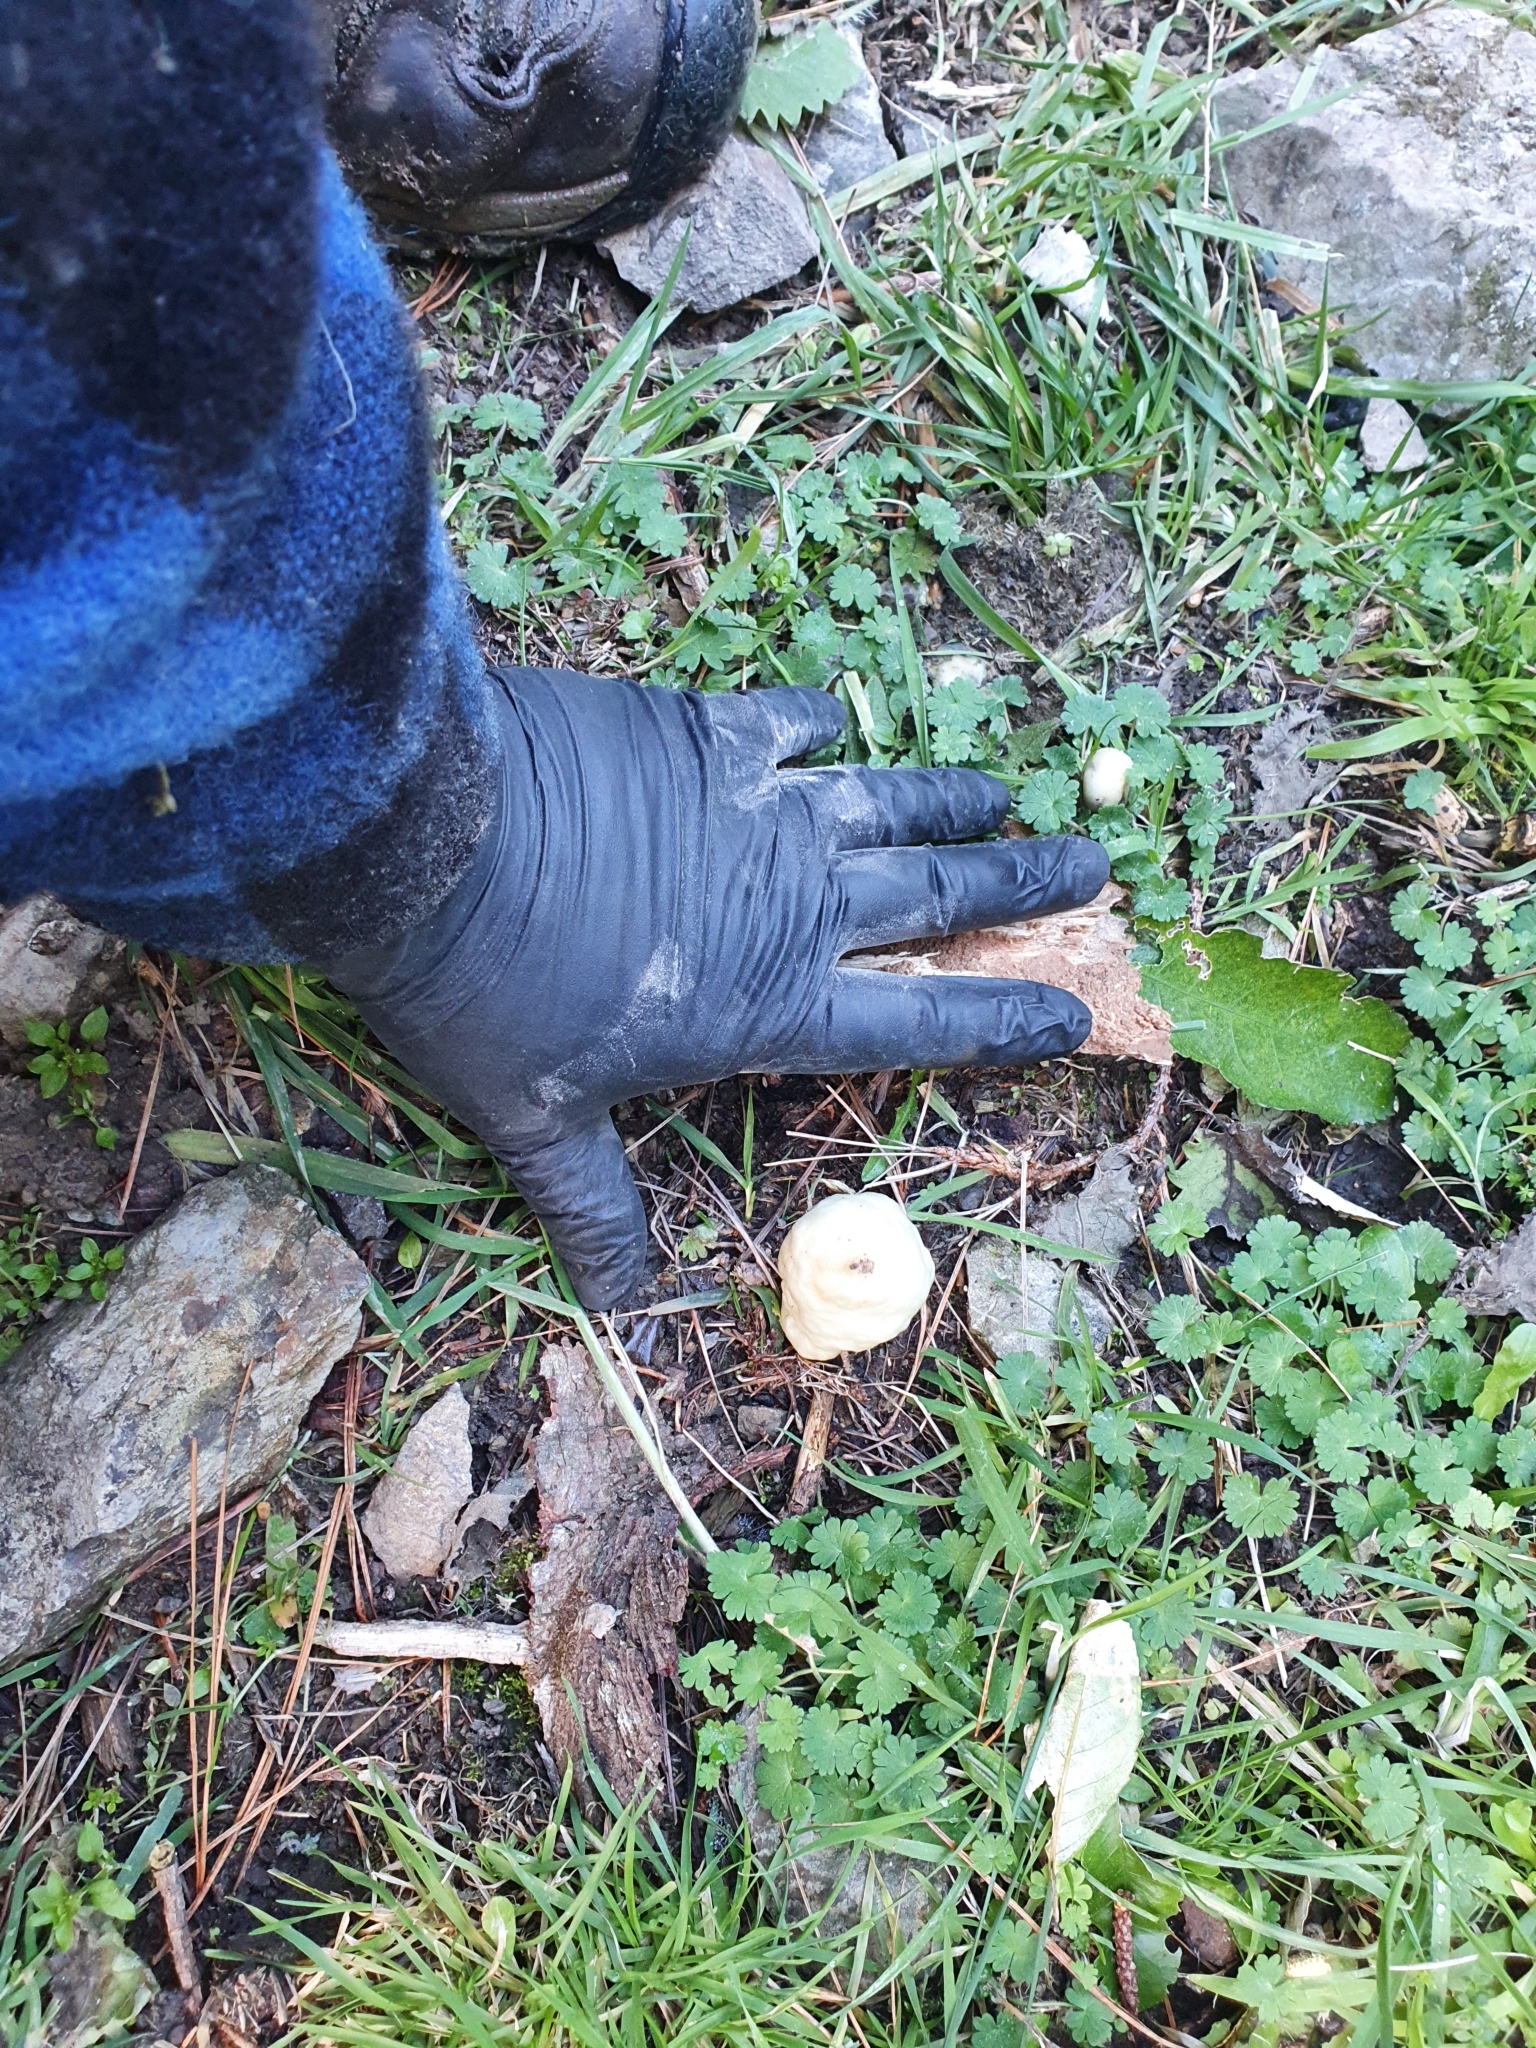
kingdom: Fungi
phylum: Basidiomycota
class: Agaricomycetes
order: Agaricales
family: Hymenogastraceae
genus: Psilocybe
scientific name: Psilocybe weraroa
